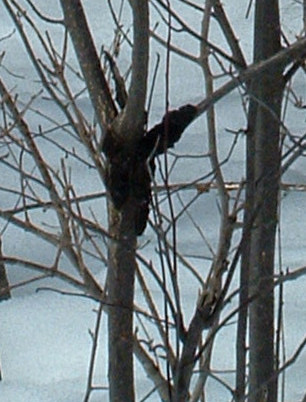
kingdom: Fungi
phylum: Ascomycota
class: Dothideomycetes
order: Venturiales
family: Venturiaceae
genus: Apiosporina
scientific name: Apiosporina morbosa
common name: Black knot
